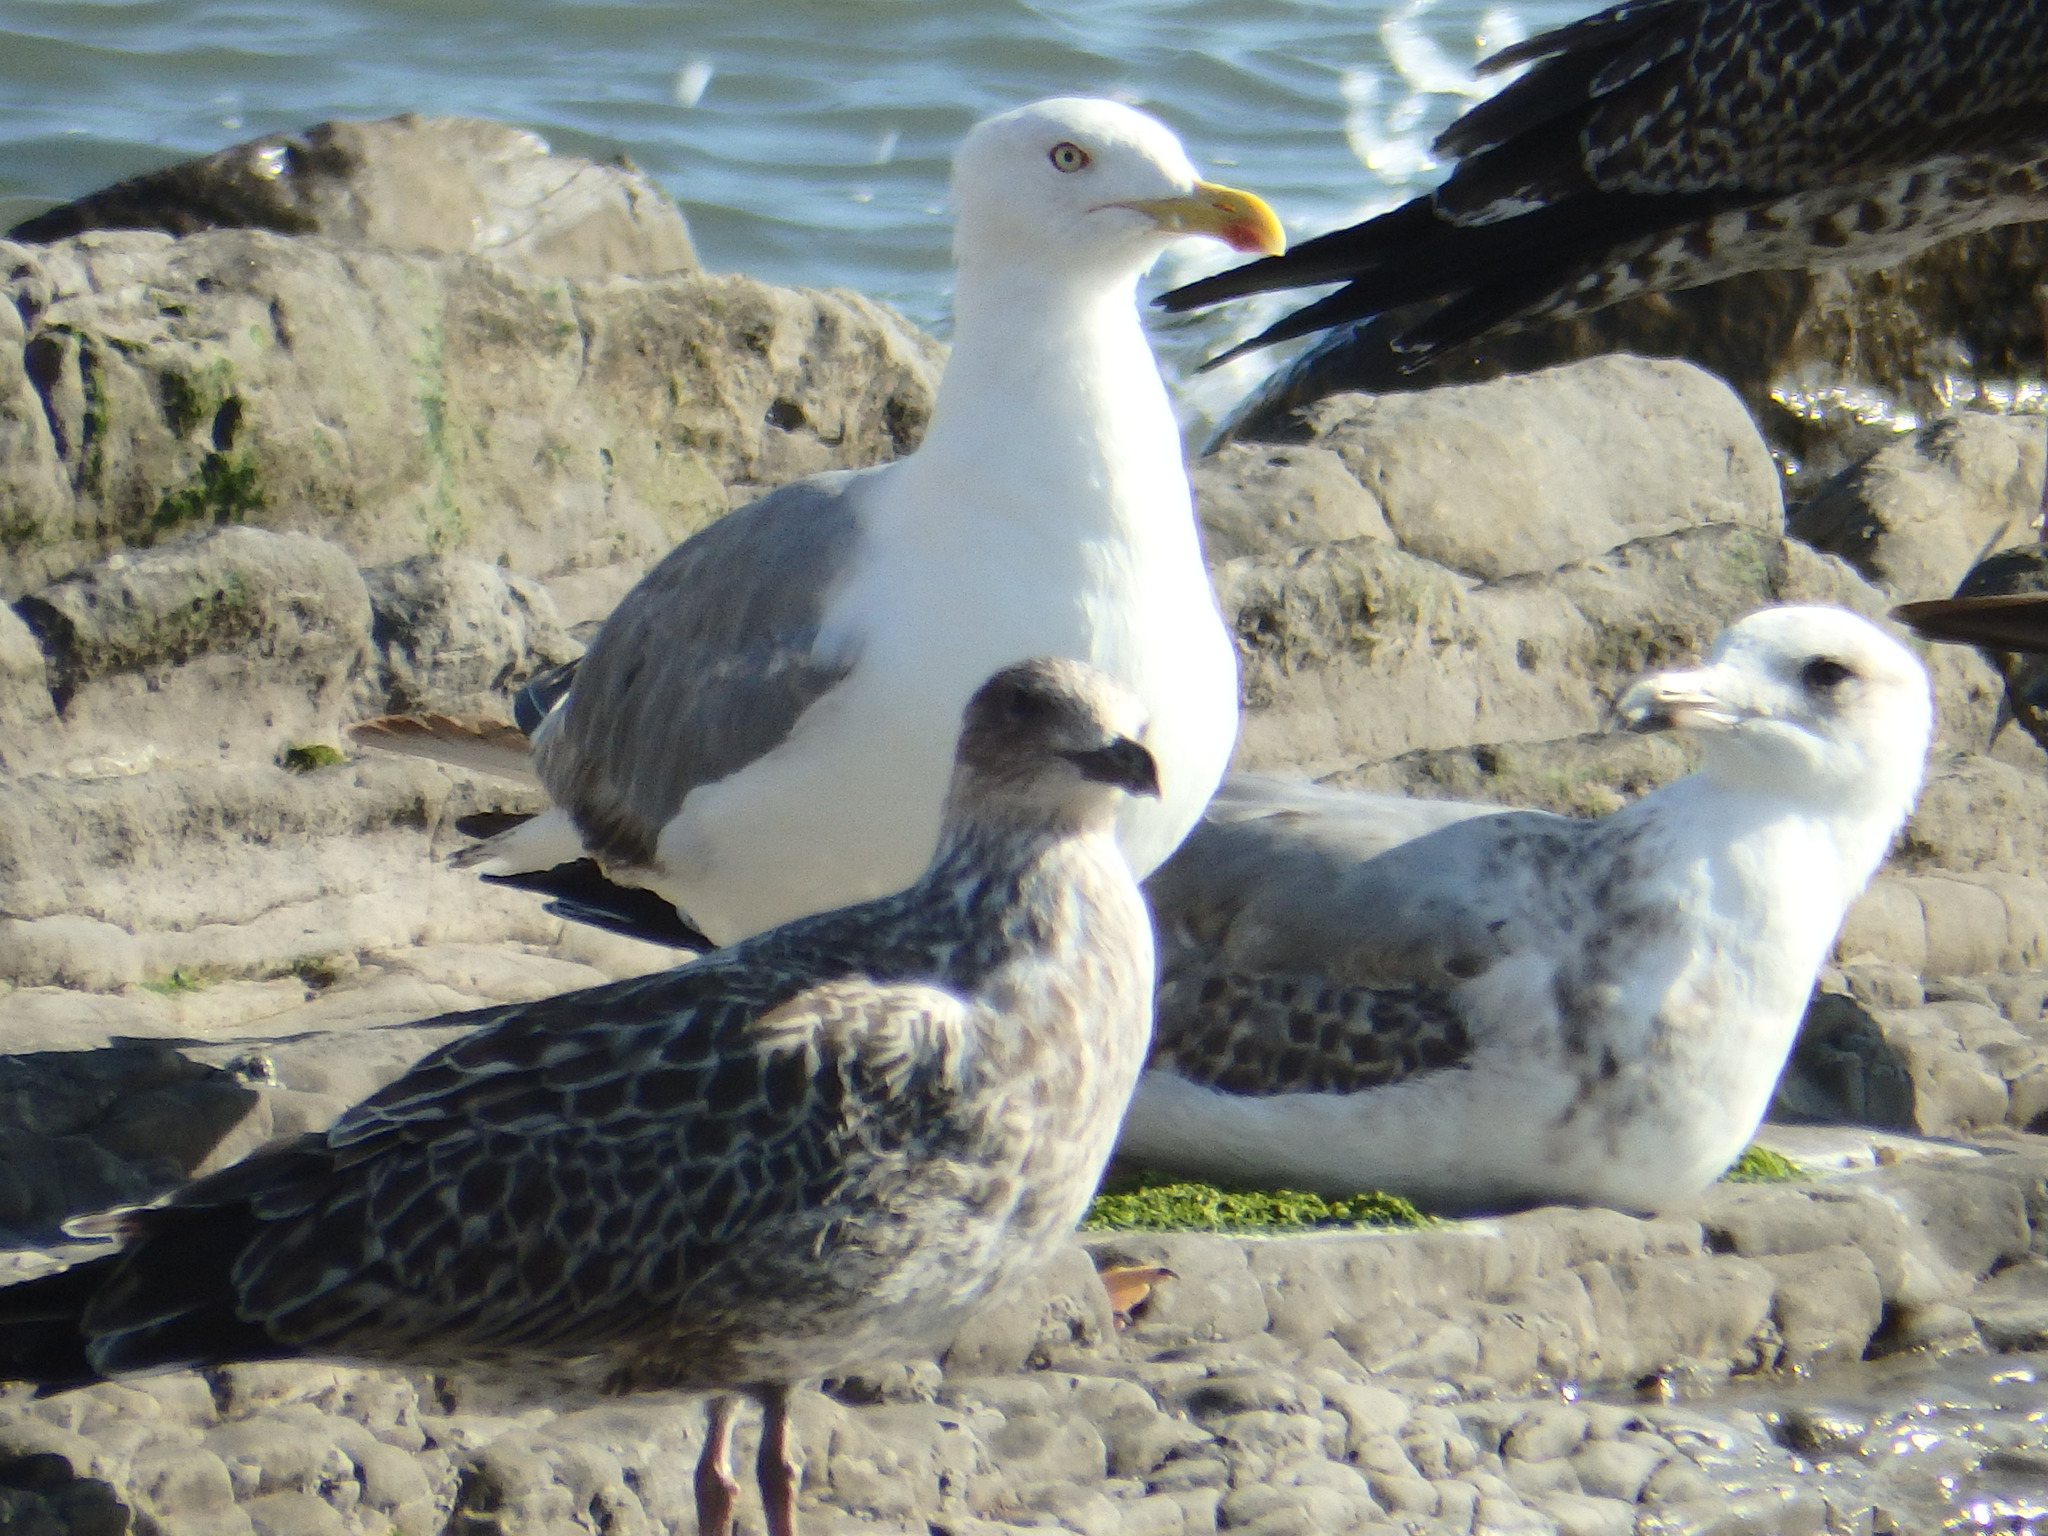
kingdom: Animalia
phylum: Chordata
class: Aves
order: Charadriiformes
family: Laridae
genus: Larus
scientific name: Larus michahellis
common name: Yellow-legged gull
